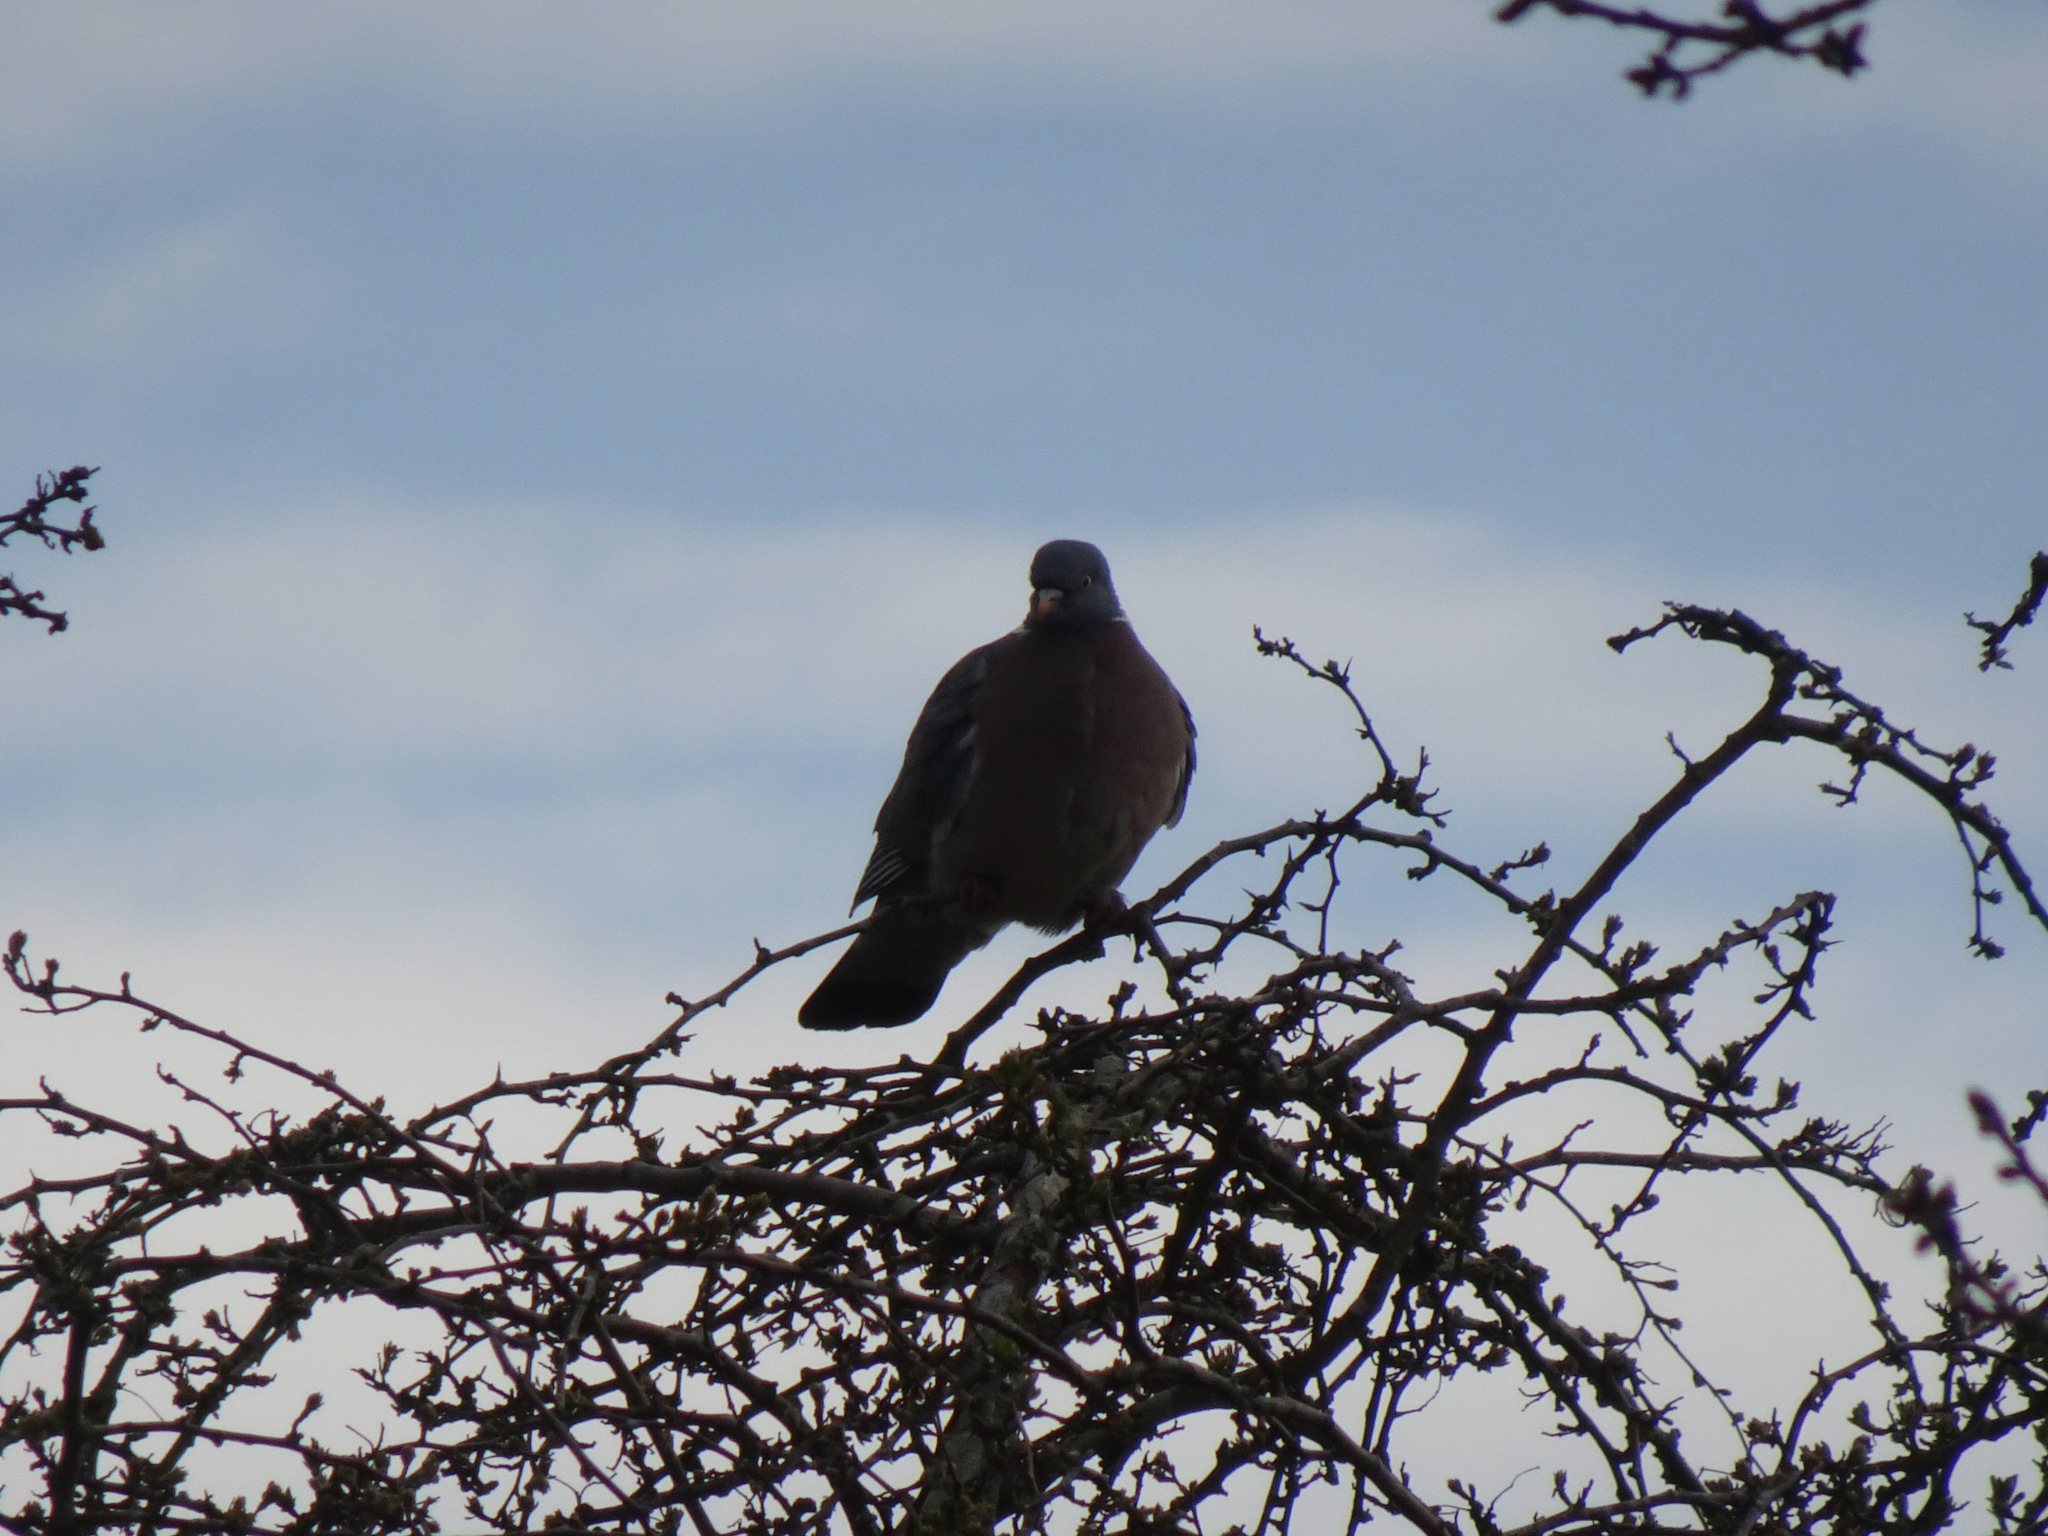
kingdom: Animalia
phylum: Chordata
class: Aves
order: Columbiformes
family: Columbidae
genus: Columba
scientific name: Columba palumbus
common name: Common wood pigeon
